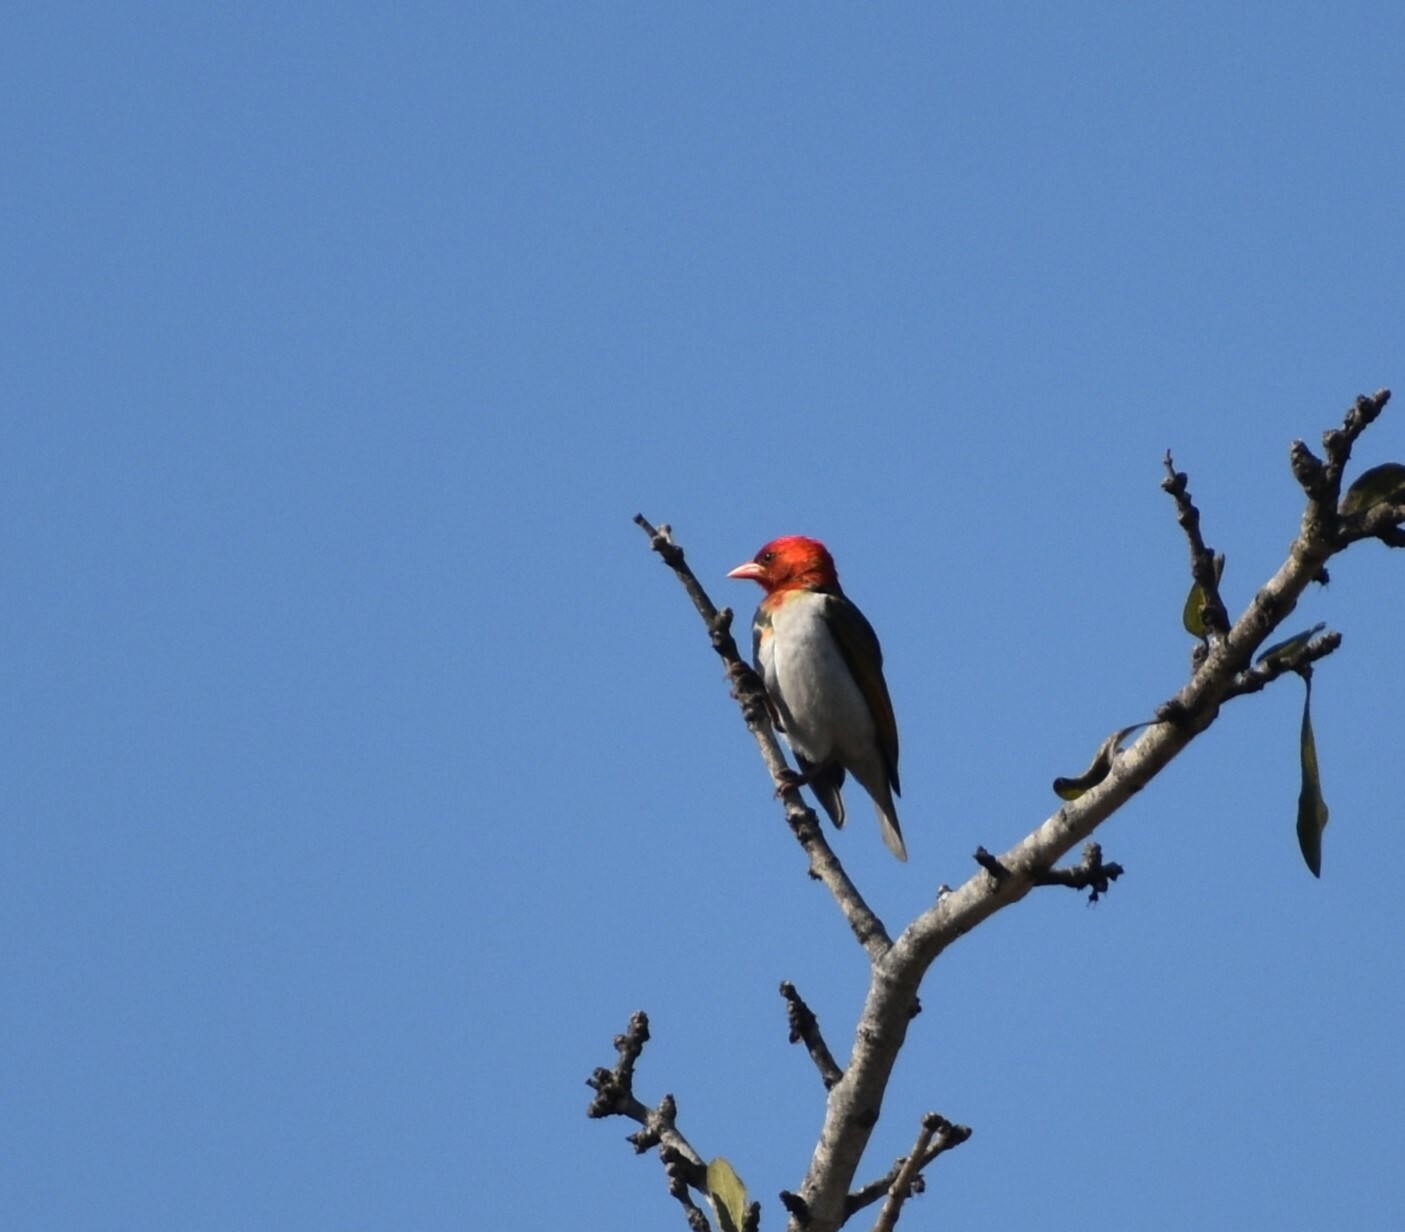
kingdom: Animalia
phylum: Chordata
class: Aves
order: Passeriformes
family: Ploceidae
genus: Anaplectes
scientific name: Anaplectes rubriceps
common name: Red-headed weaver
